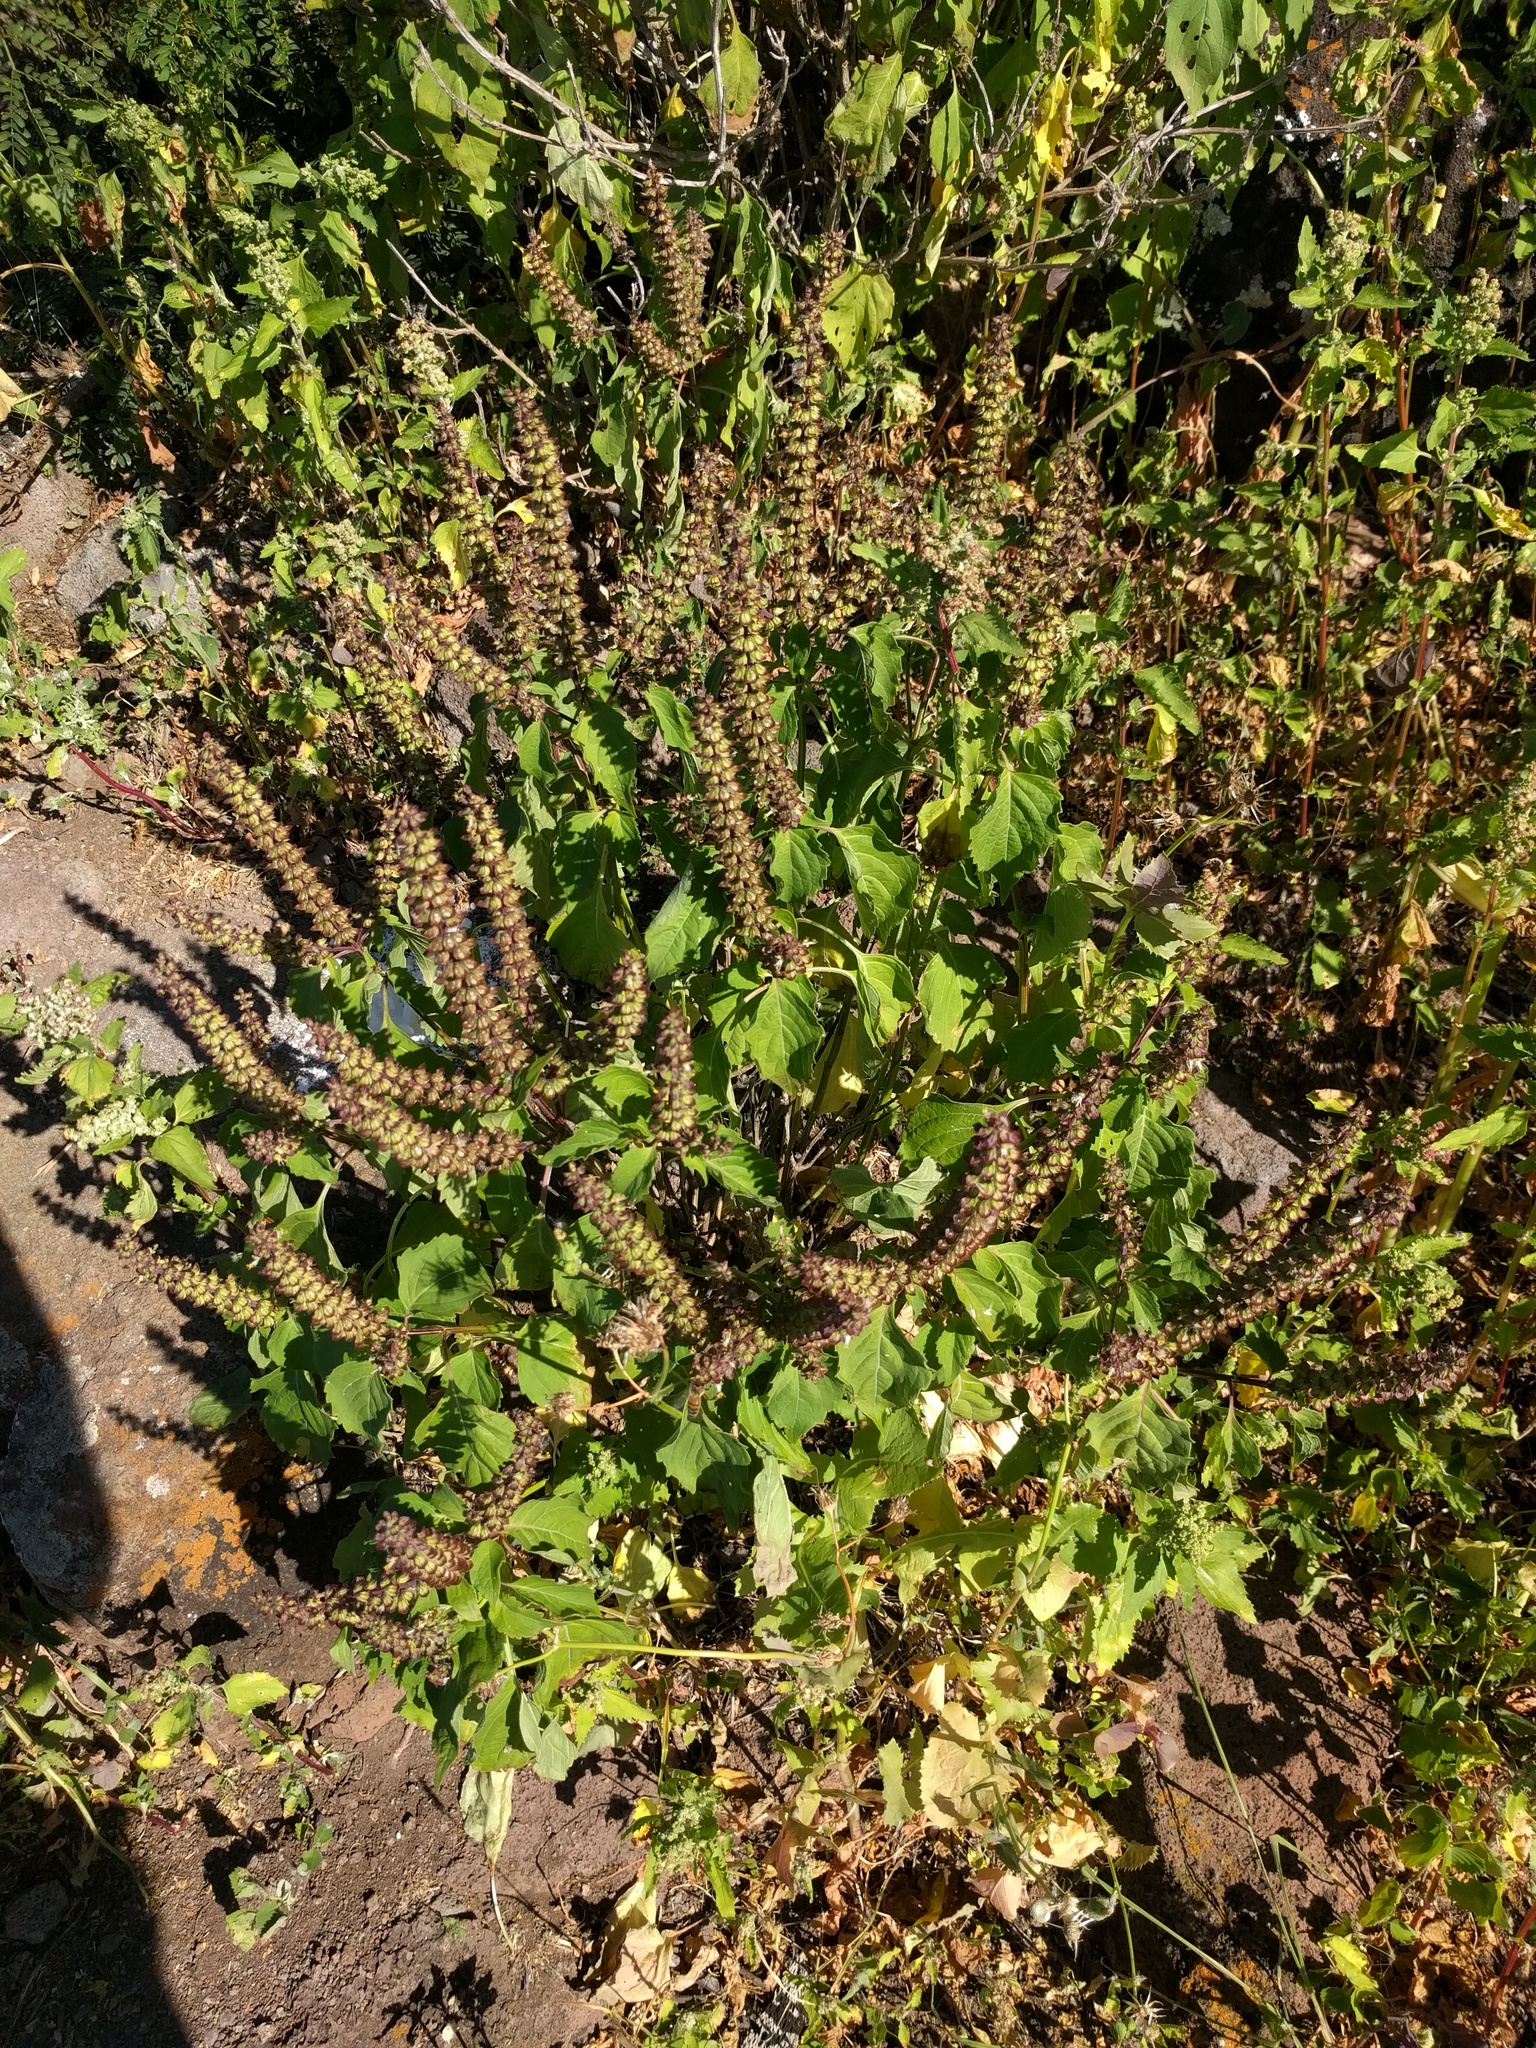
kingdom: Plantae
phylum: Tracheophyta
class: Magnoliopsida
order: Lamiales
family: Lamiaceae
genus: Ocimum
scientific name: Ocimum gratissimum
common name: African basil
